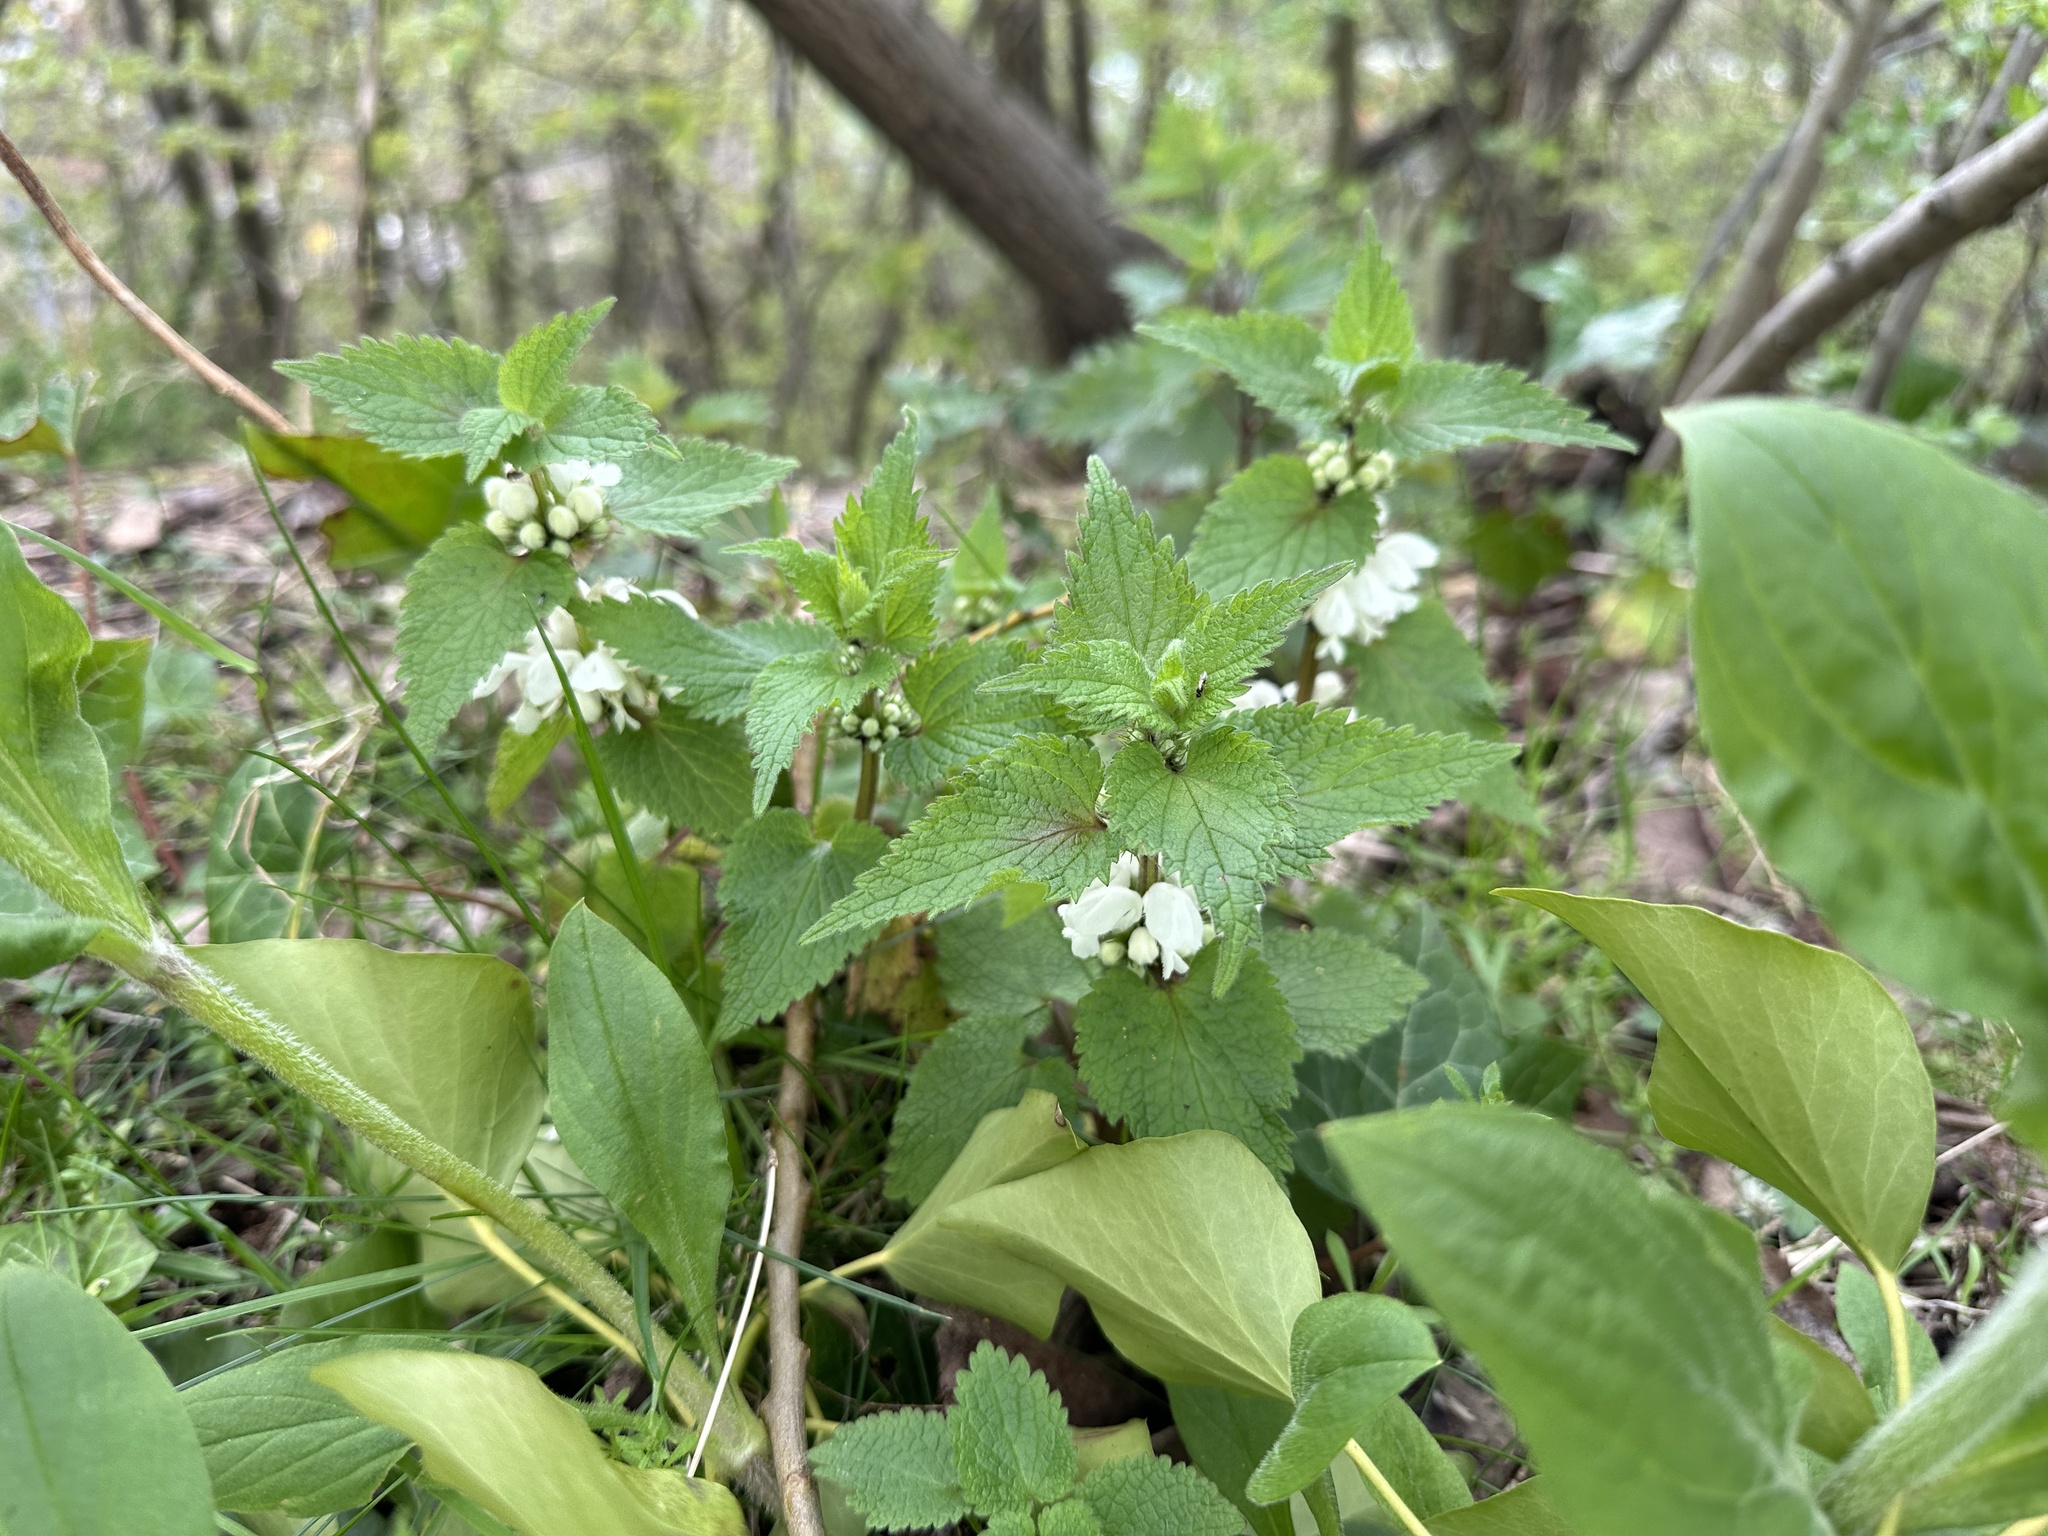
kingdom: Plantae
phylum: Tracheophyta
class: Magnoliopsida
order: Lamiales
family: Lamiaceae
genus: Lamium
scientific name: Lamium album
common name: White dead-nettle
